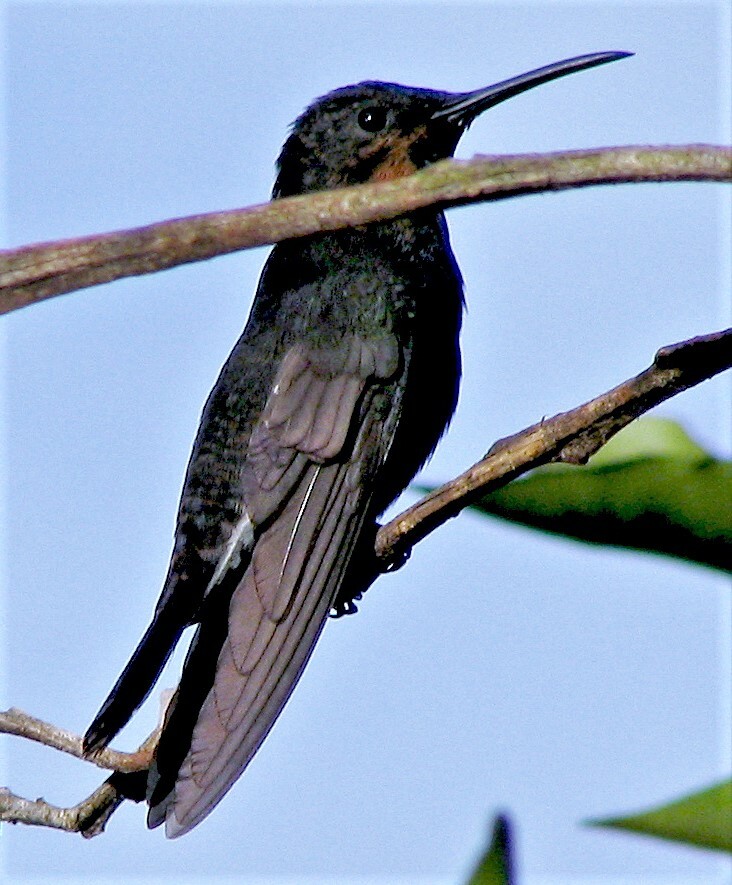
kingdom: Animalia
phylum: Chordata
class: Aves
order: Apodiformes
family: Trochilidae
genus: Florisuga
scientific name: Florisuga fusca
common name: Black jacobin
